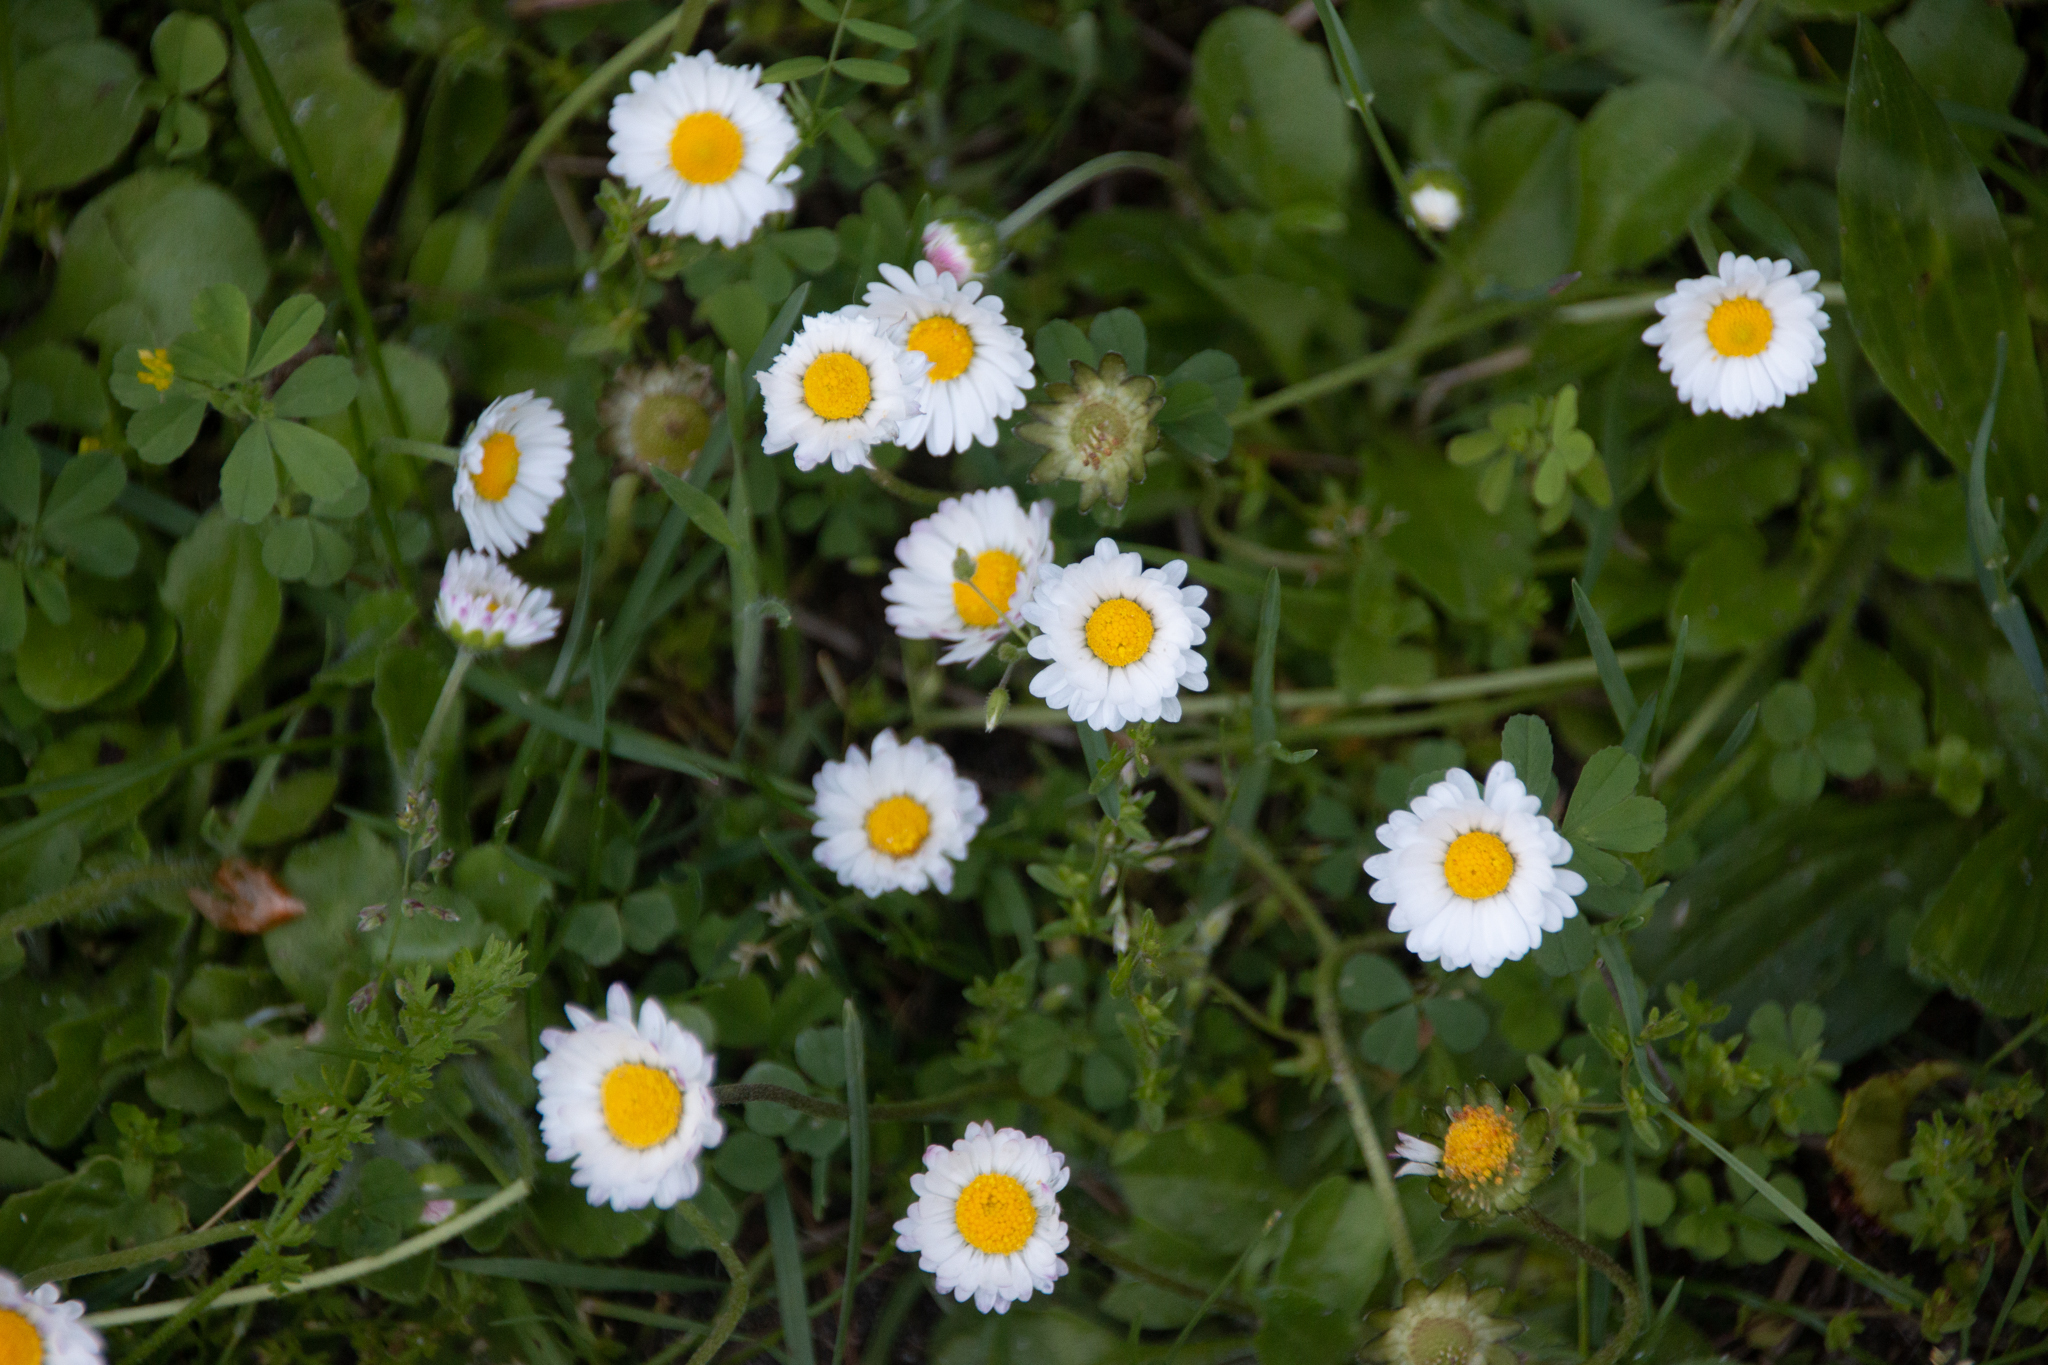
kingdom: Plantae
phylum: Tracheophyta
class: Magnoliopsida
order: Asterales
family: Asteraceae
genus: Bellis
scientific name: Bellis perennis
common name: Lawndaisy
